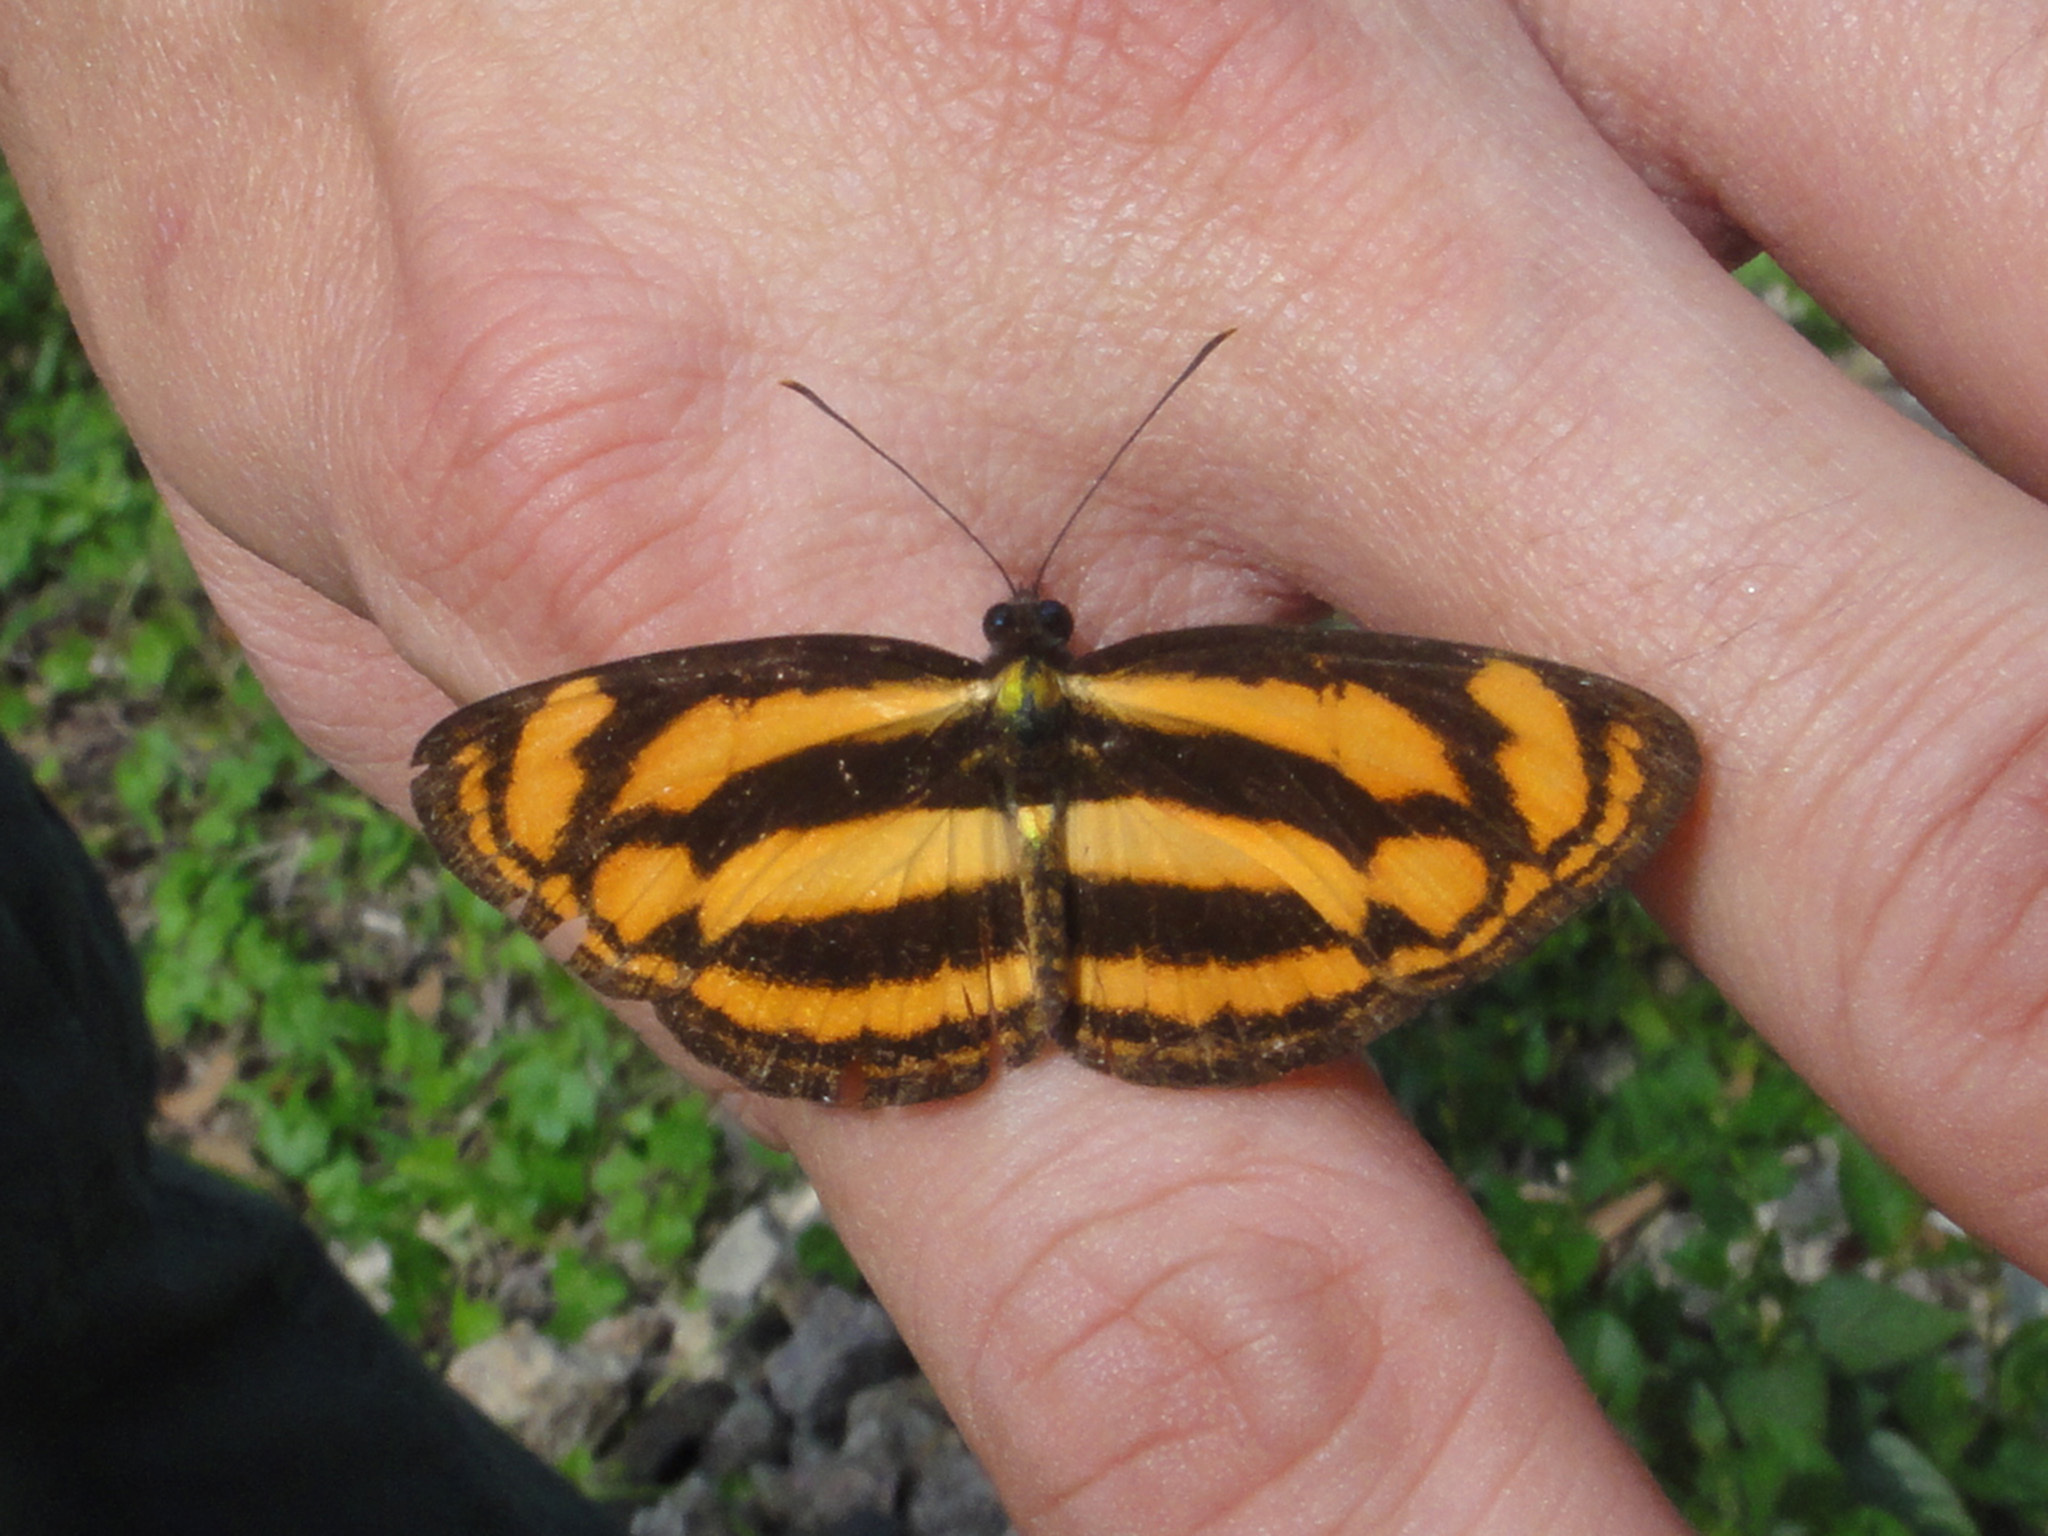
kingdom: Animalia
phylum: Arthropoda
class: Insecta
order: Lepidoptera
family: Nymphalidae
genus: Lasippa
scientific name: Lasippa tiga
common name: Malayan lascar
